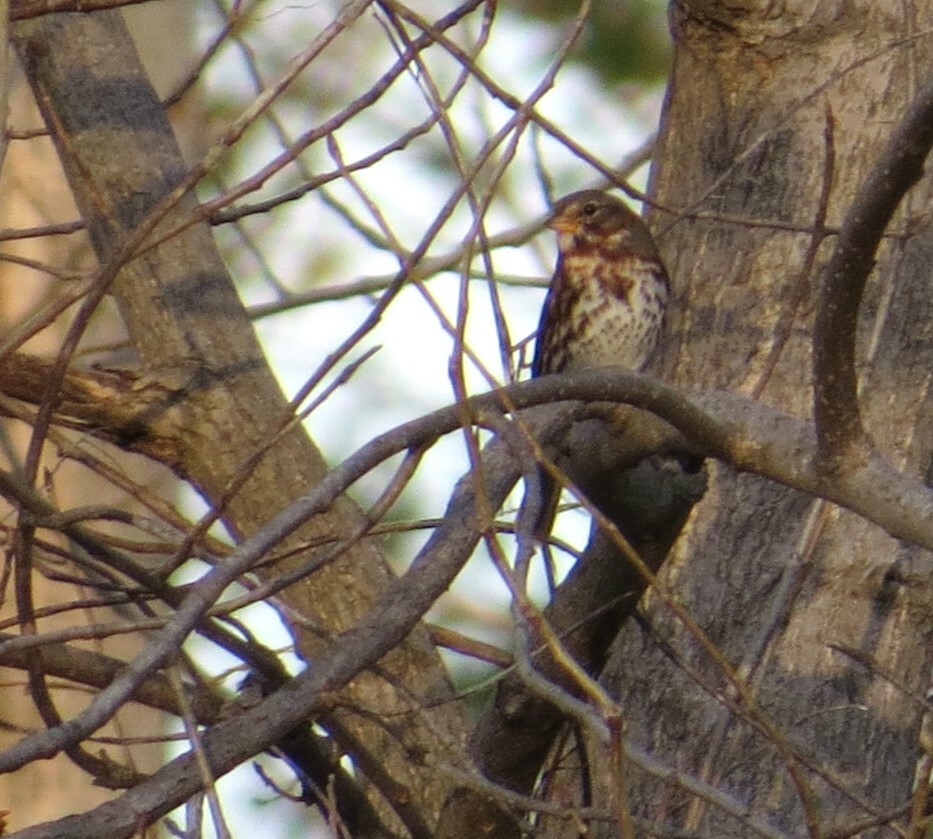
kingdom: Animalia
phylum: Chordata
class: Aves
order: Passeriformes
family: Passerellidae
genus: Passerella
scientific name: Passerella iliaca
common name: Fox sparrow
